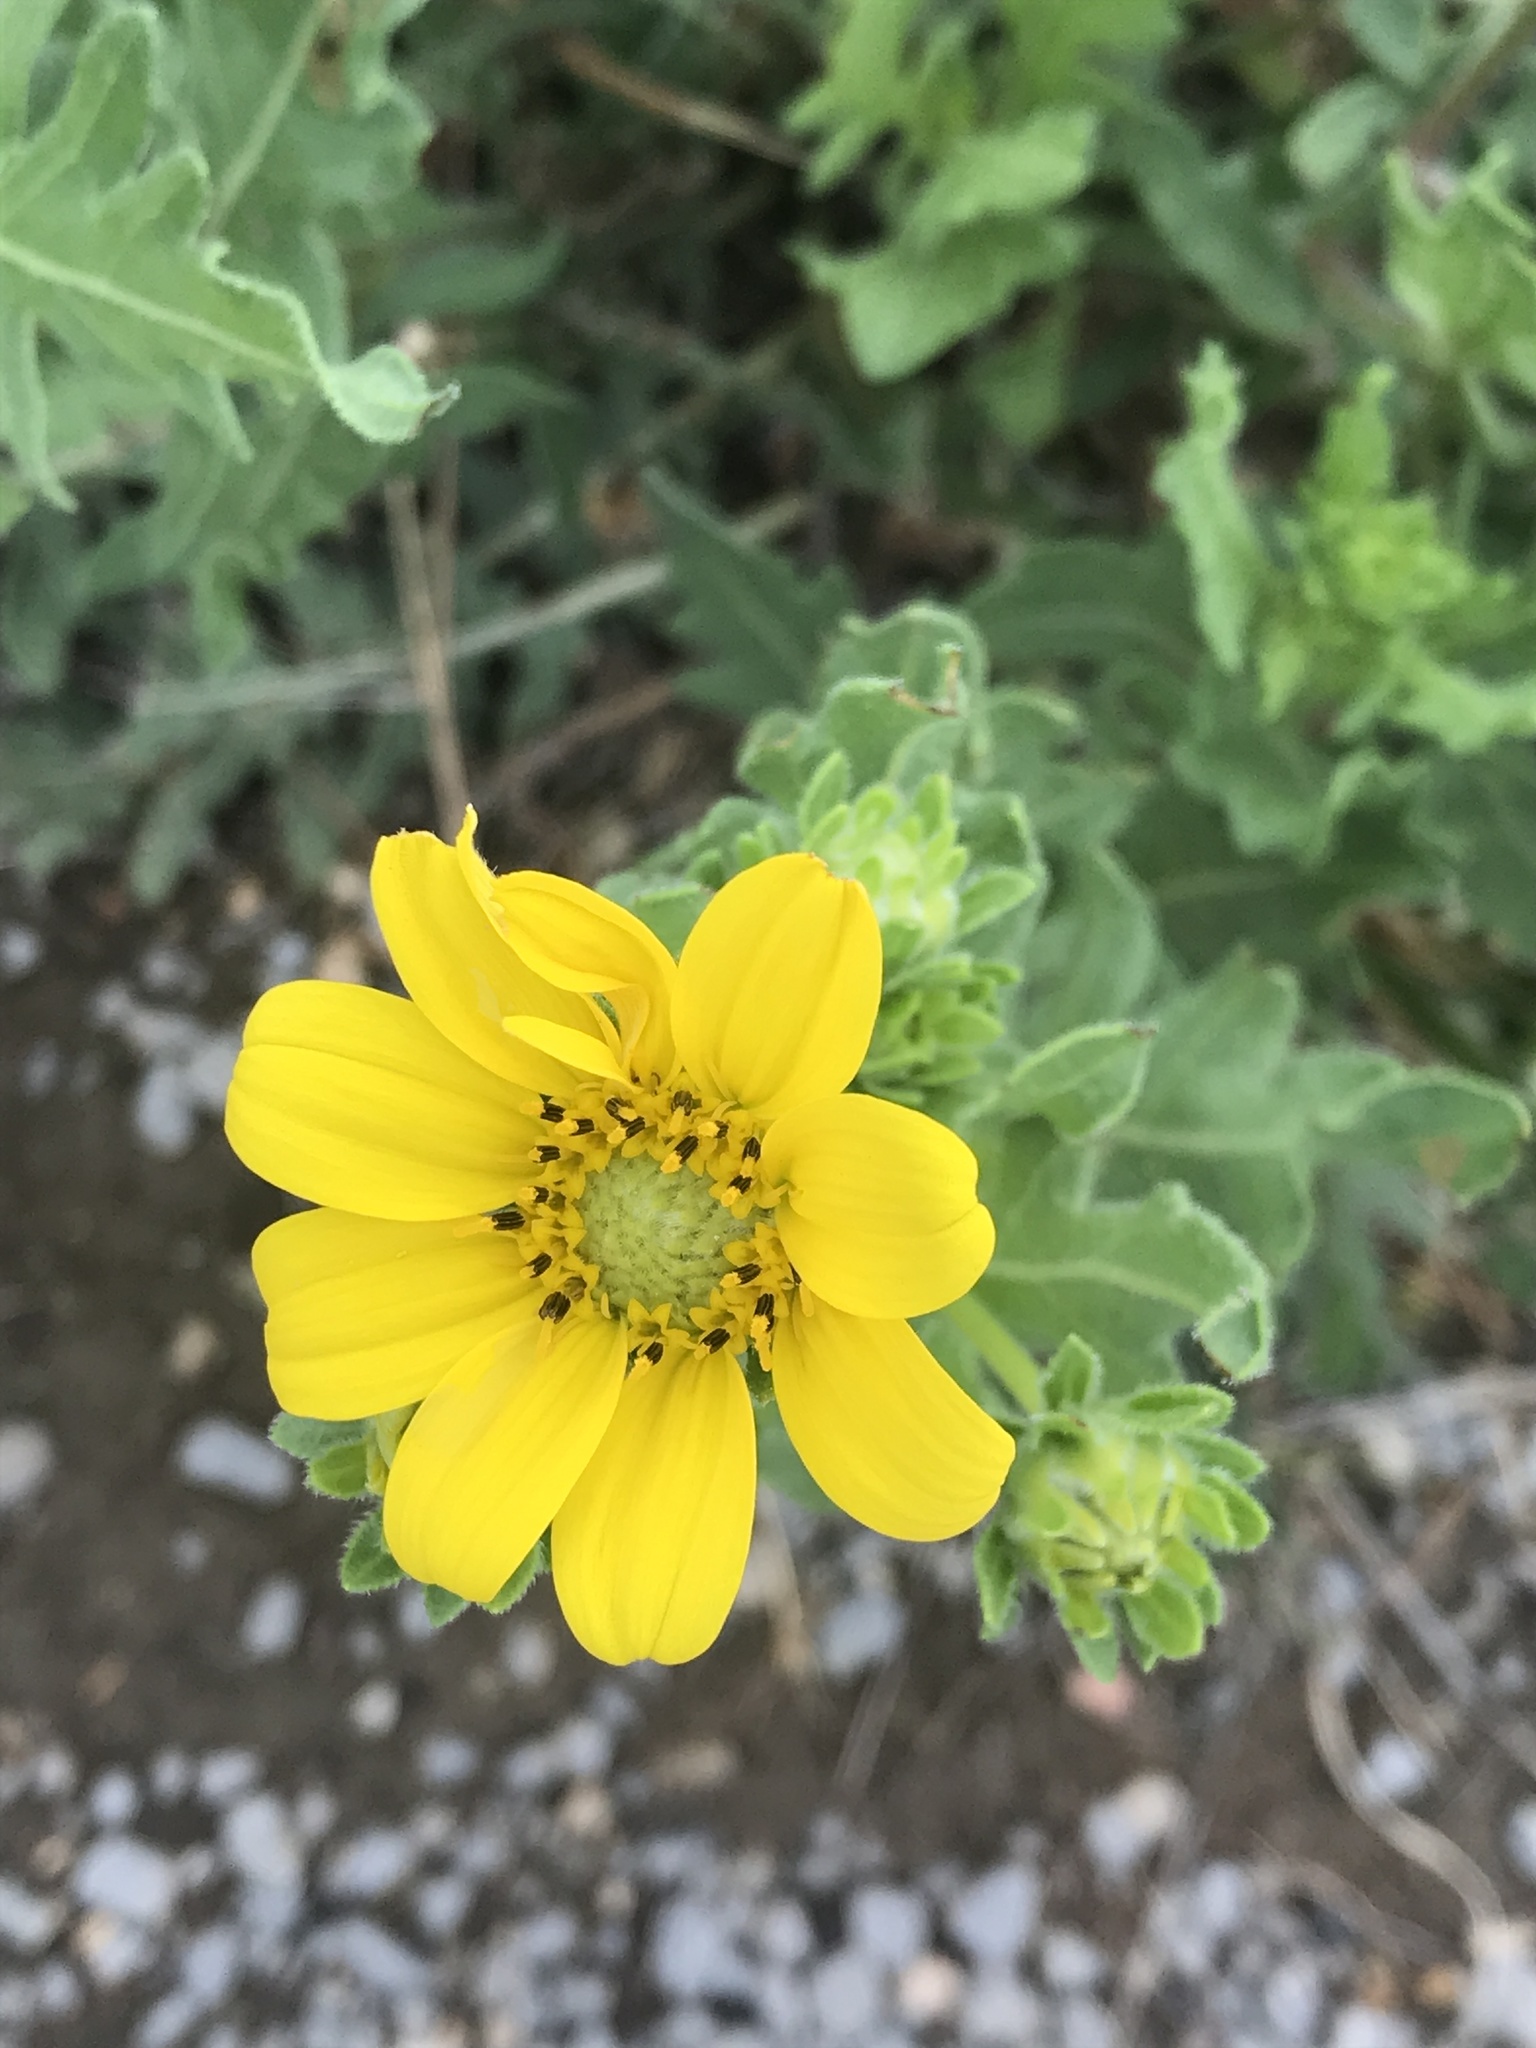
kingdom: Plantae
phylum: Tracheophyta
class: Magnoliopsida
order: Asterales
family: Asteraceae
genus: Engelmannia
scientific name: Engelmannia peristenia
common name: Engelmann's daisy
